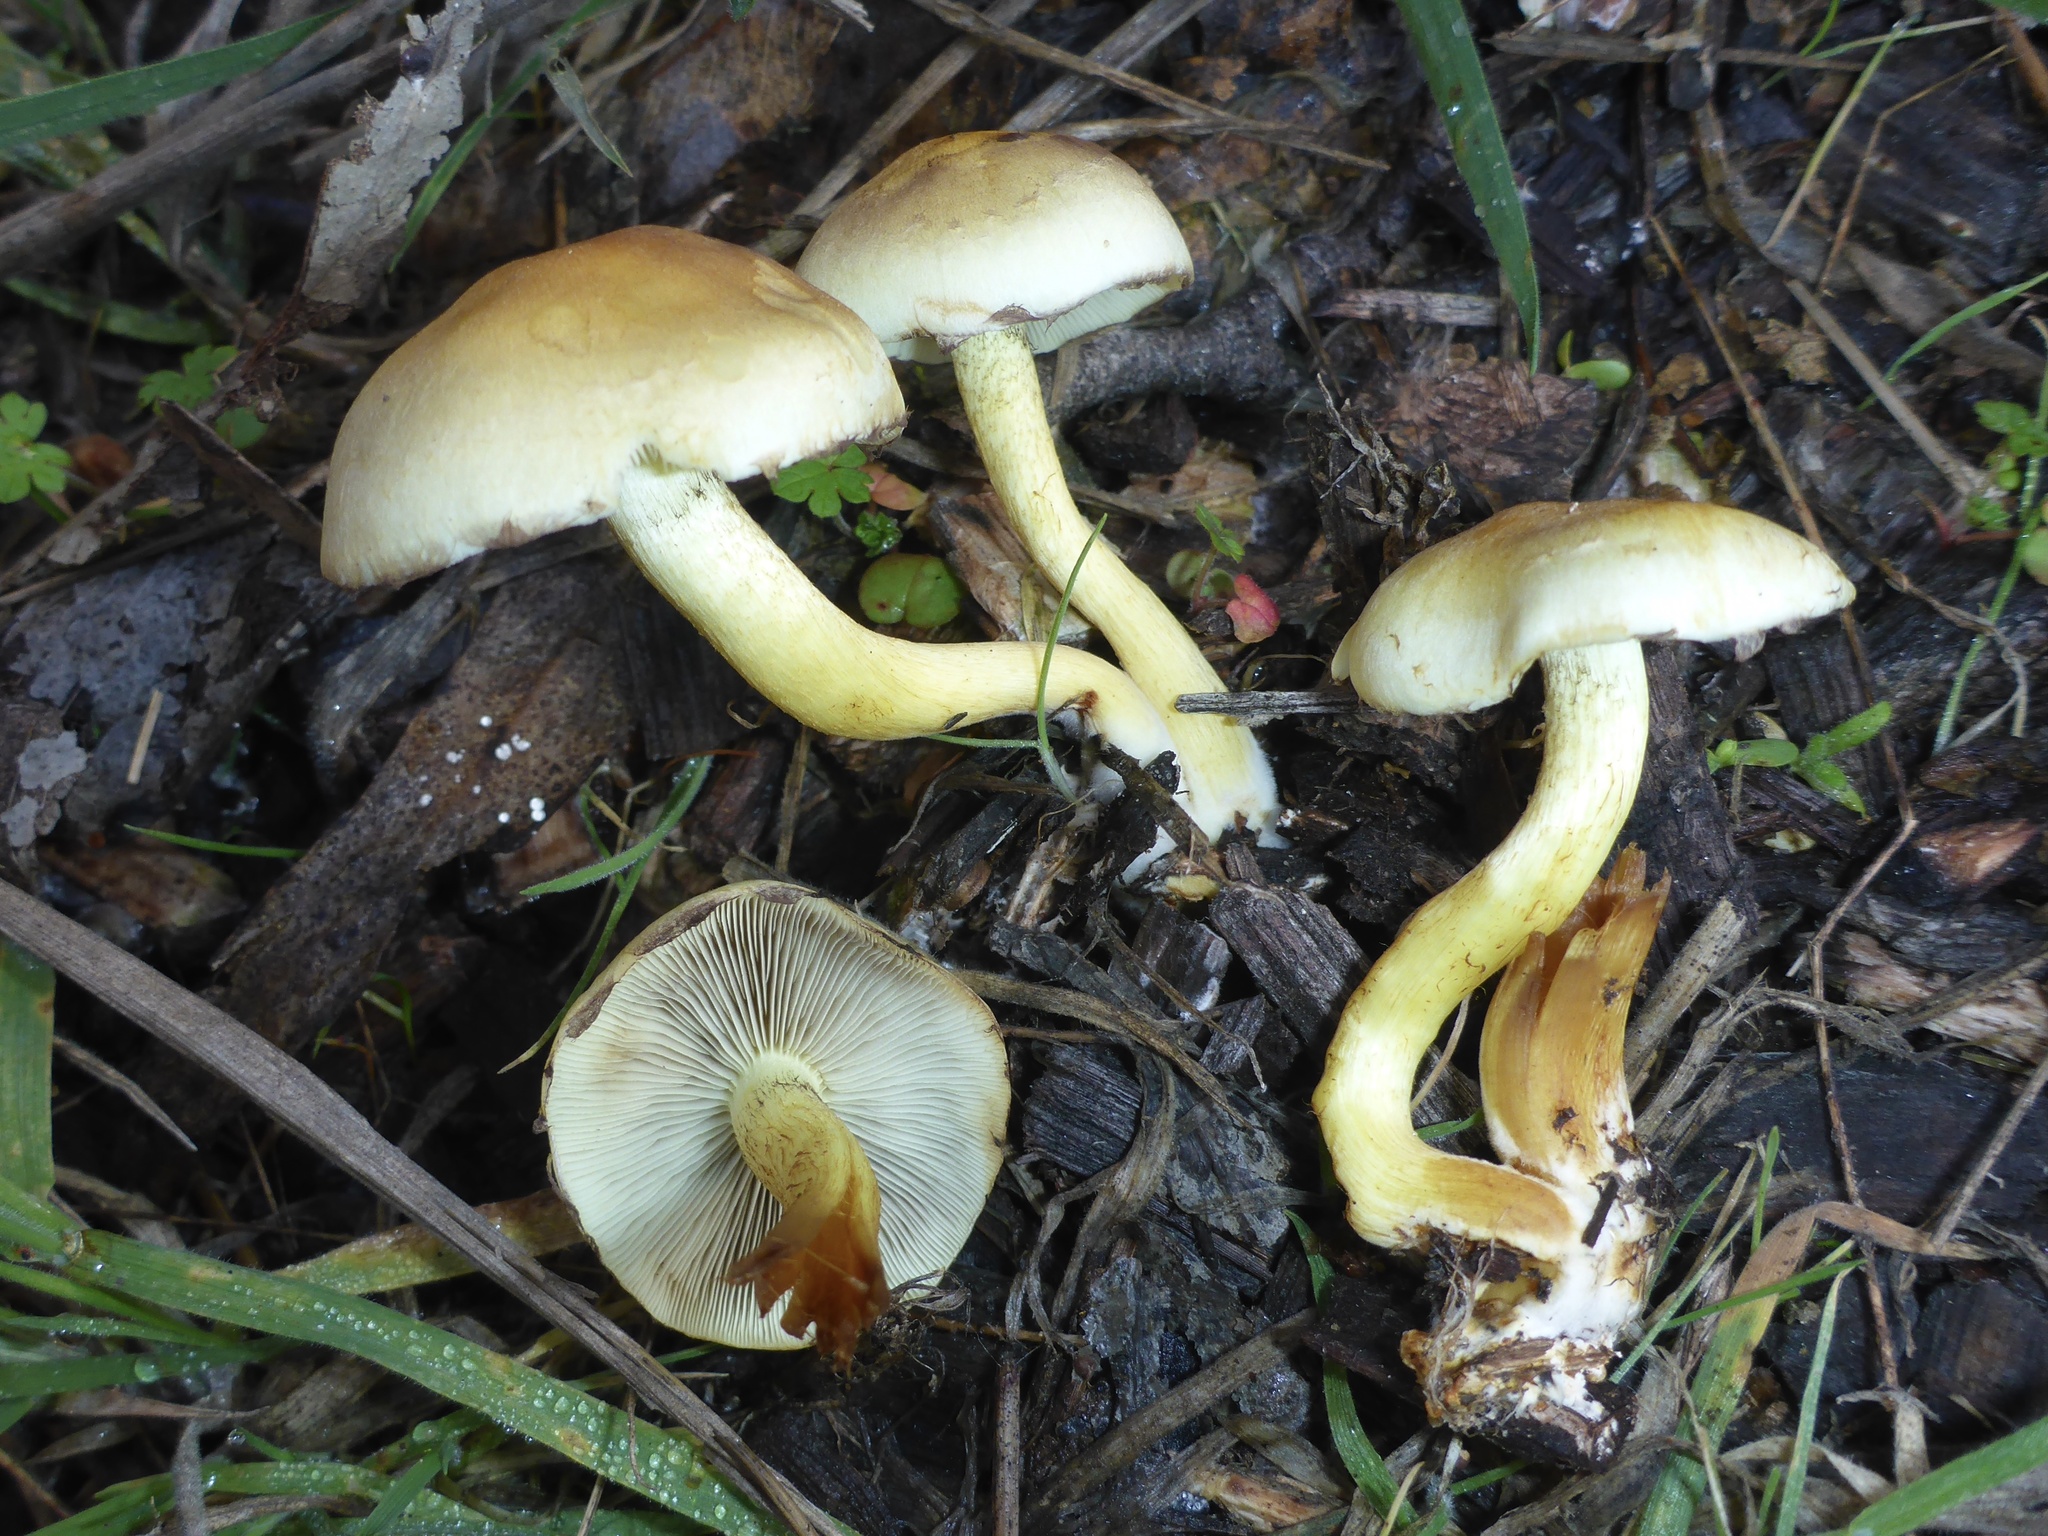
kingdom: Fungi
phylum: Basidiomycota
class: Agaricomycetes
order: Agaricales
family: Strophariaceae
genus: Hypholoma
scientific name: Hypholoma fasciculare
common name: Sulphur tuft
